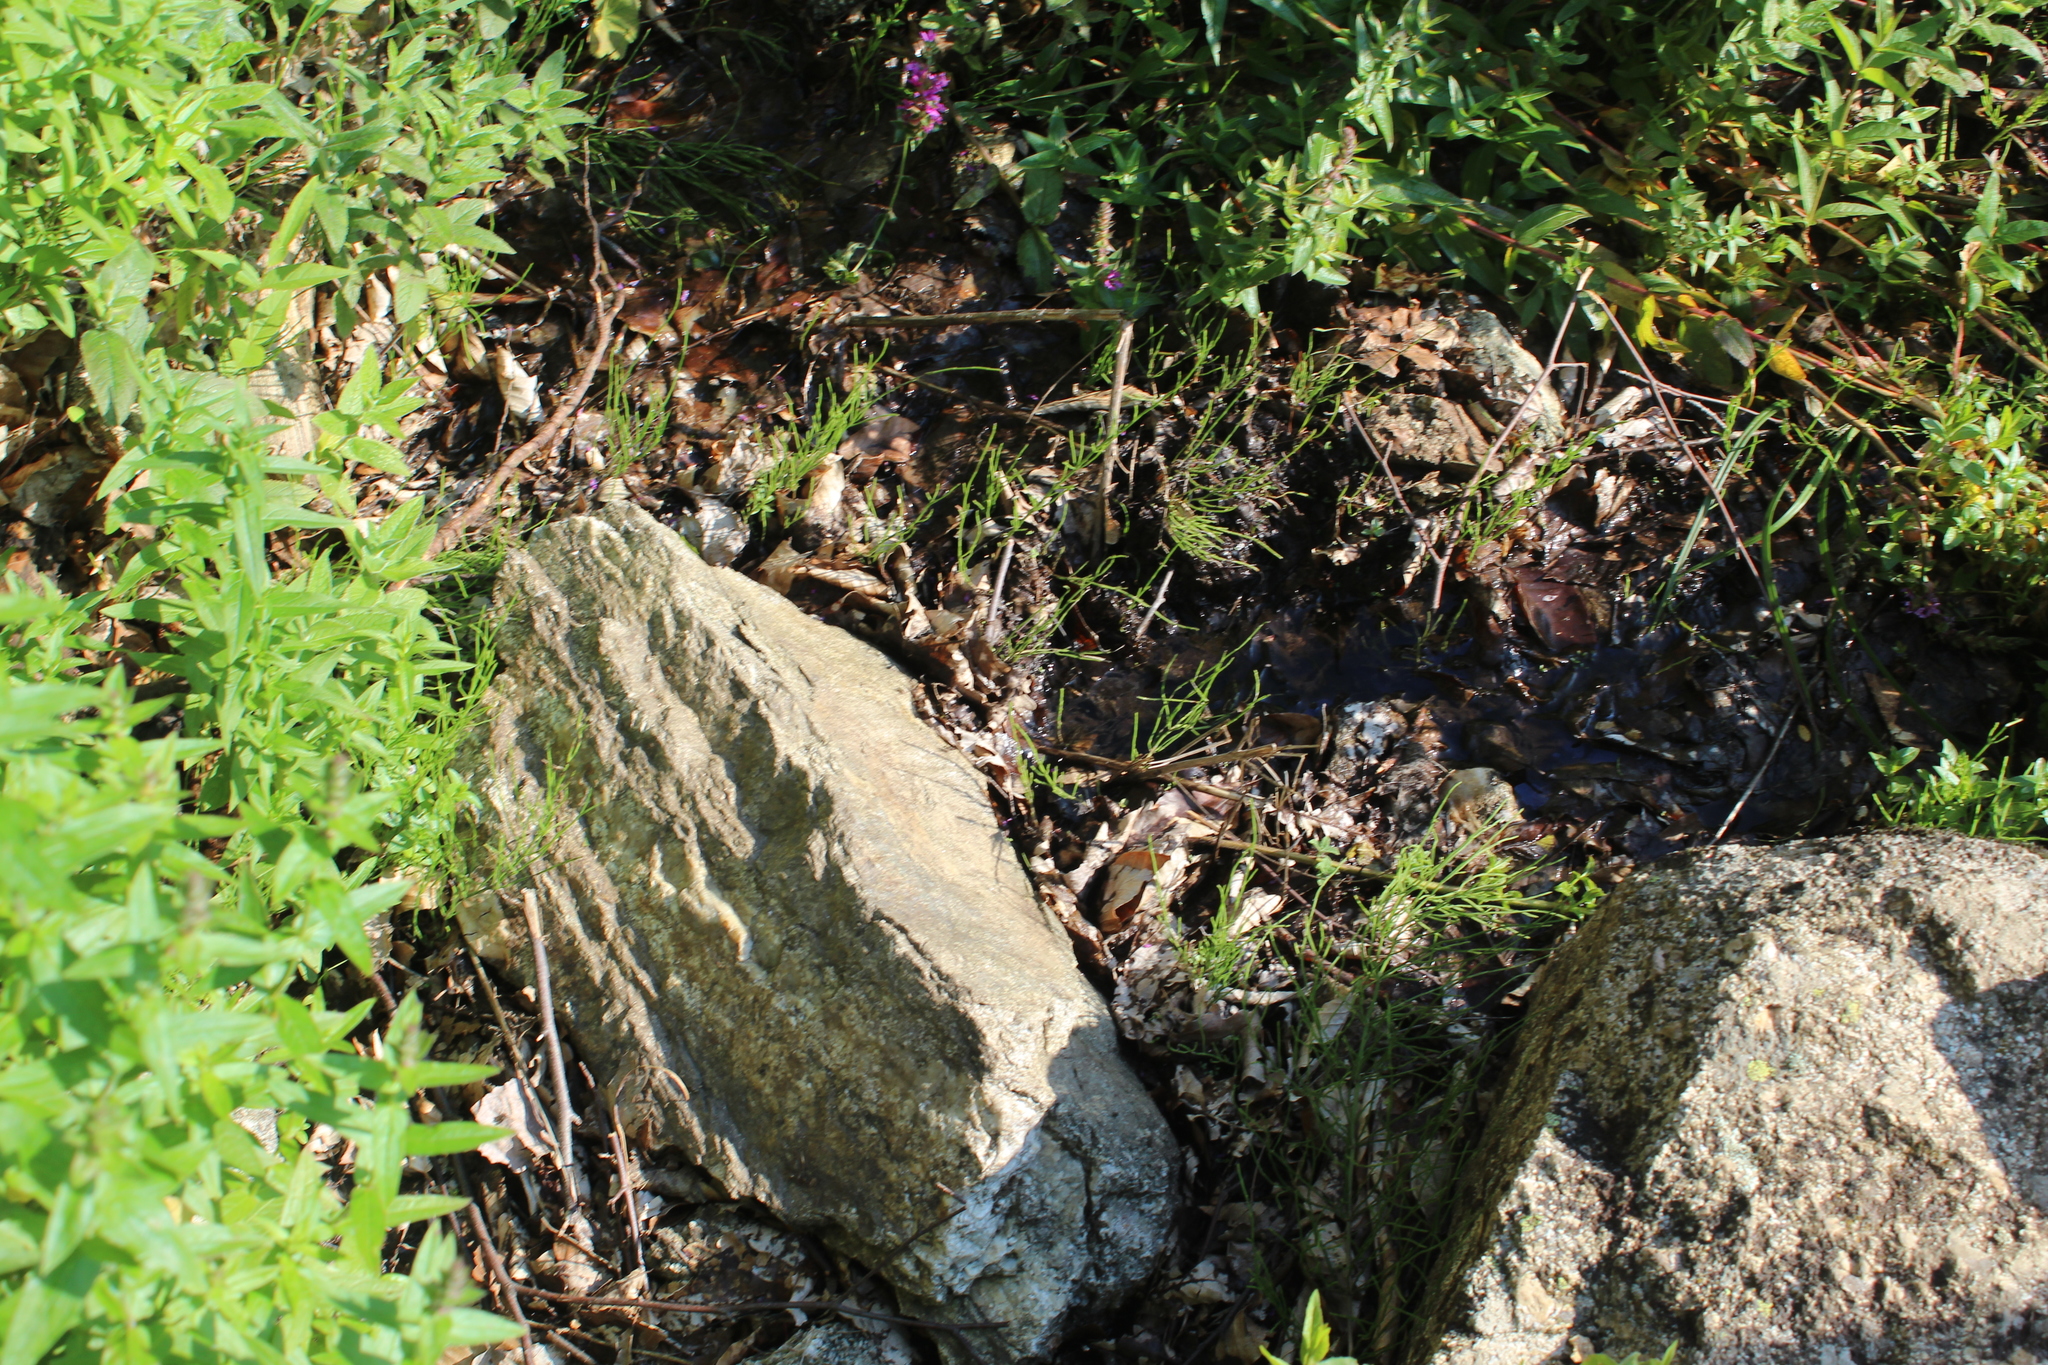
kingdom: Plantae
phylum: Tracheophyta
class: Polypodiopsida
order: Equisetales
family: Equisetaceae
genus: Equisetum
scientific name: Equisetum arvense
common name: Field horsetail
